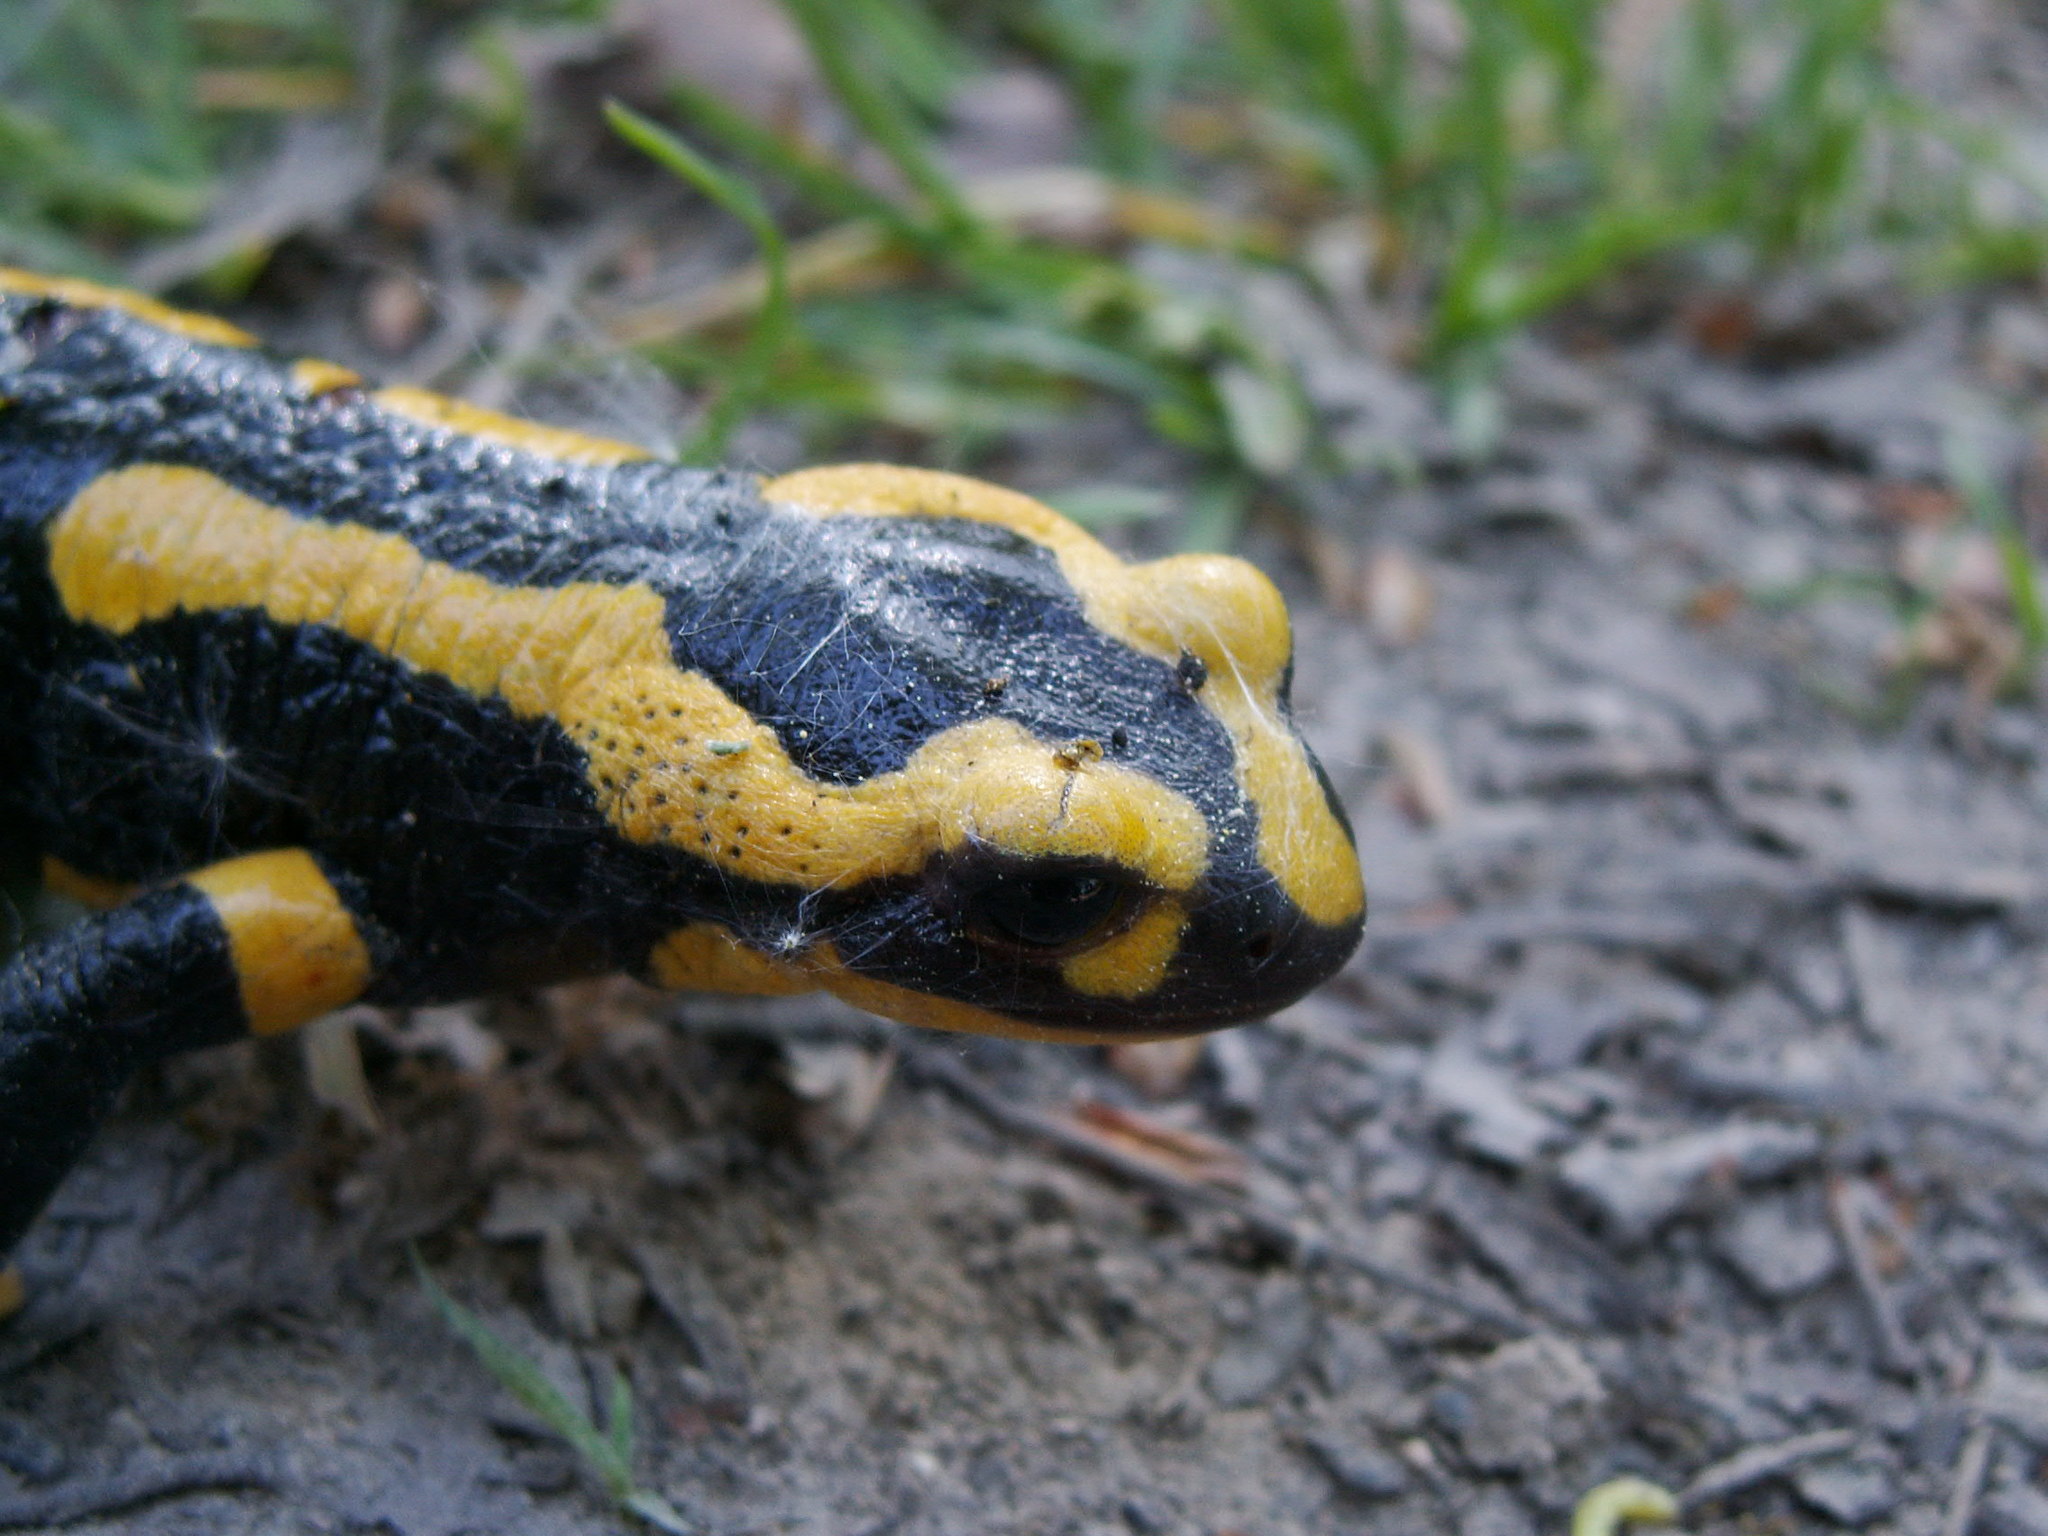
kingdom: Animalia
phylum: Chordata
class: Amphibia
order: Caudata
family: Salamandridae
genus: Salamandra
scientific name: Salamandra salamandra
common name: Fire salamander
